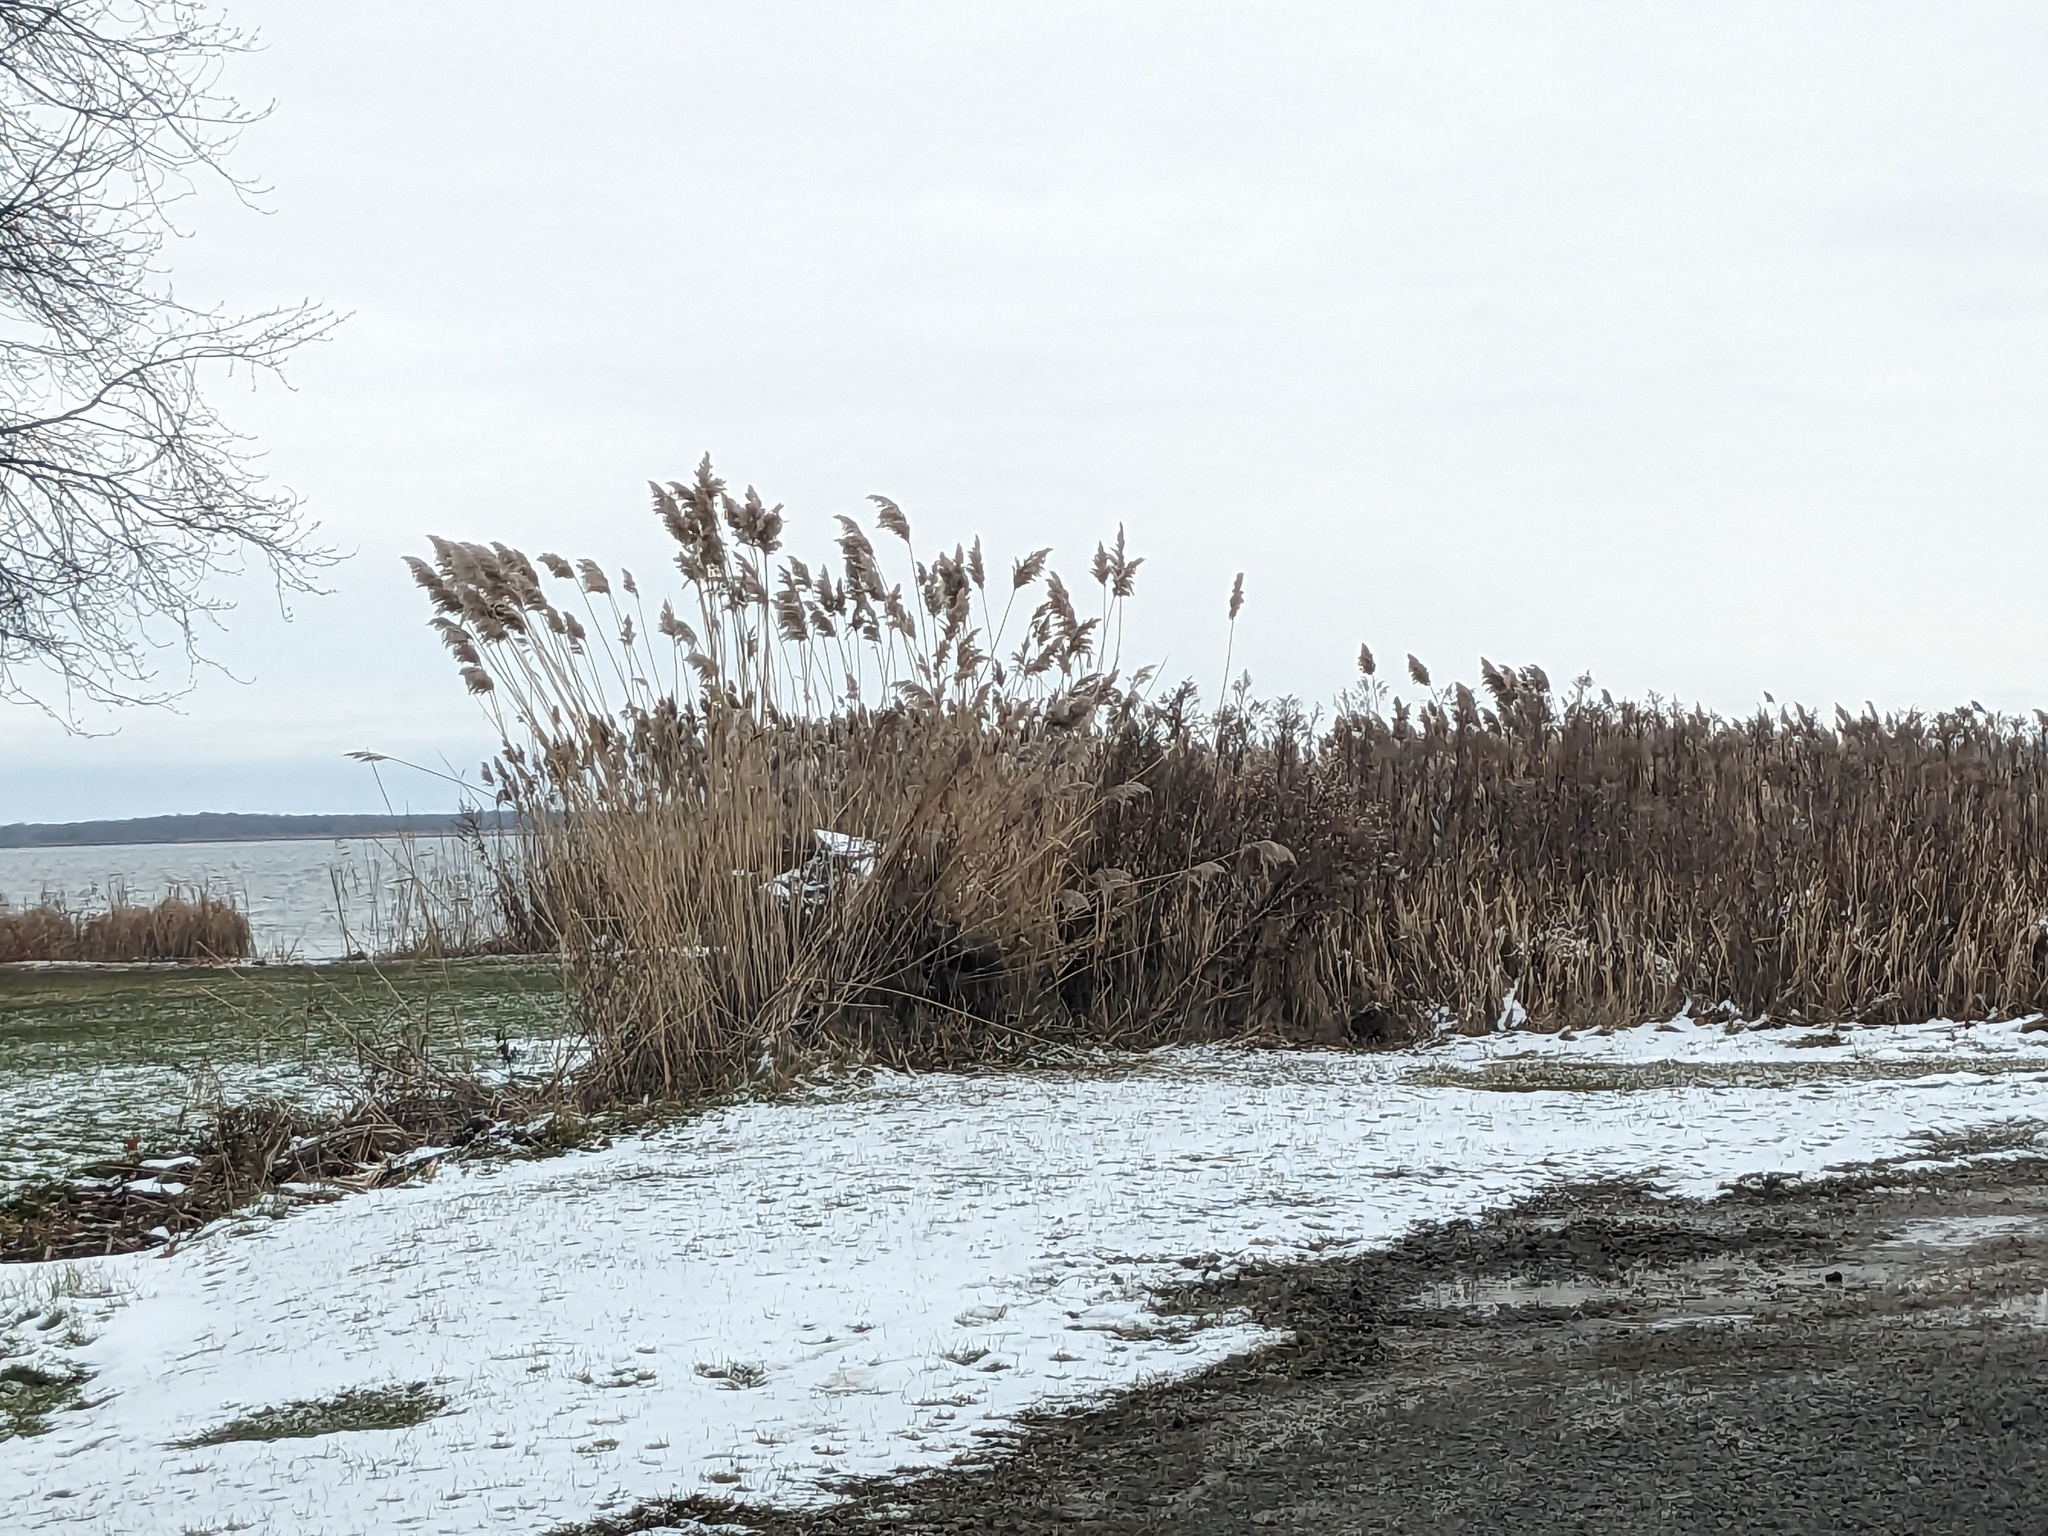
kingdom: Plantae
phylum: Tracheophyta
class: Liliopsida
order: Poales
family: Poaceae
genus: Phragmites
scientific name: Phragmites australis
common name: Common reed
